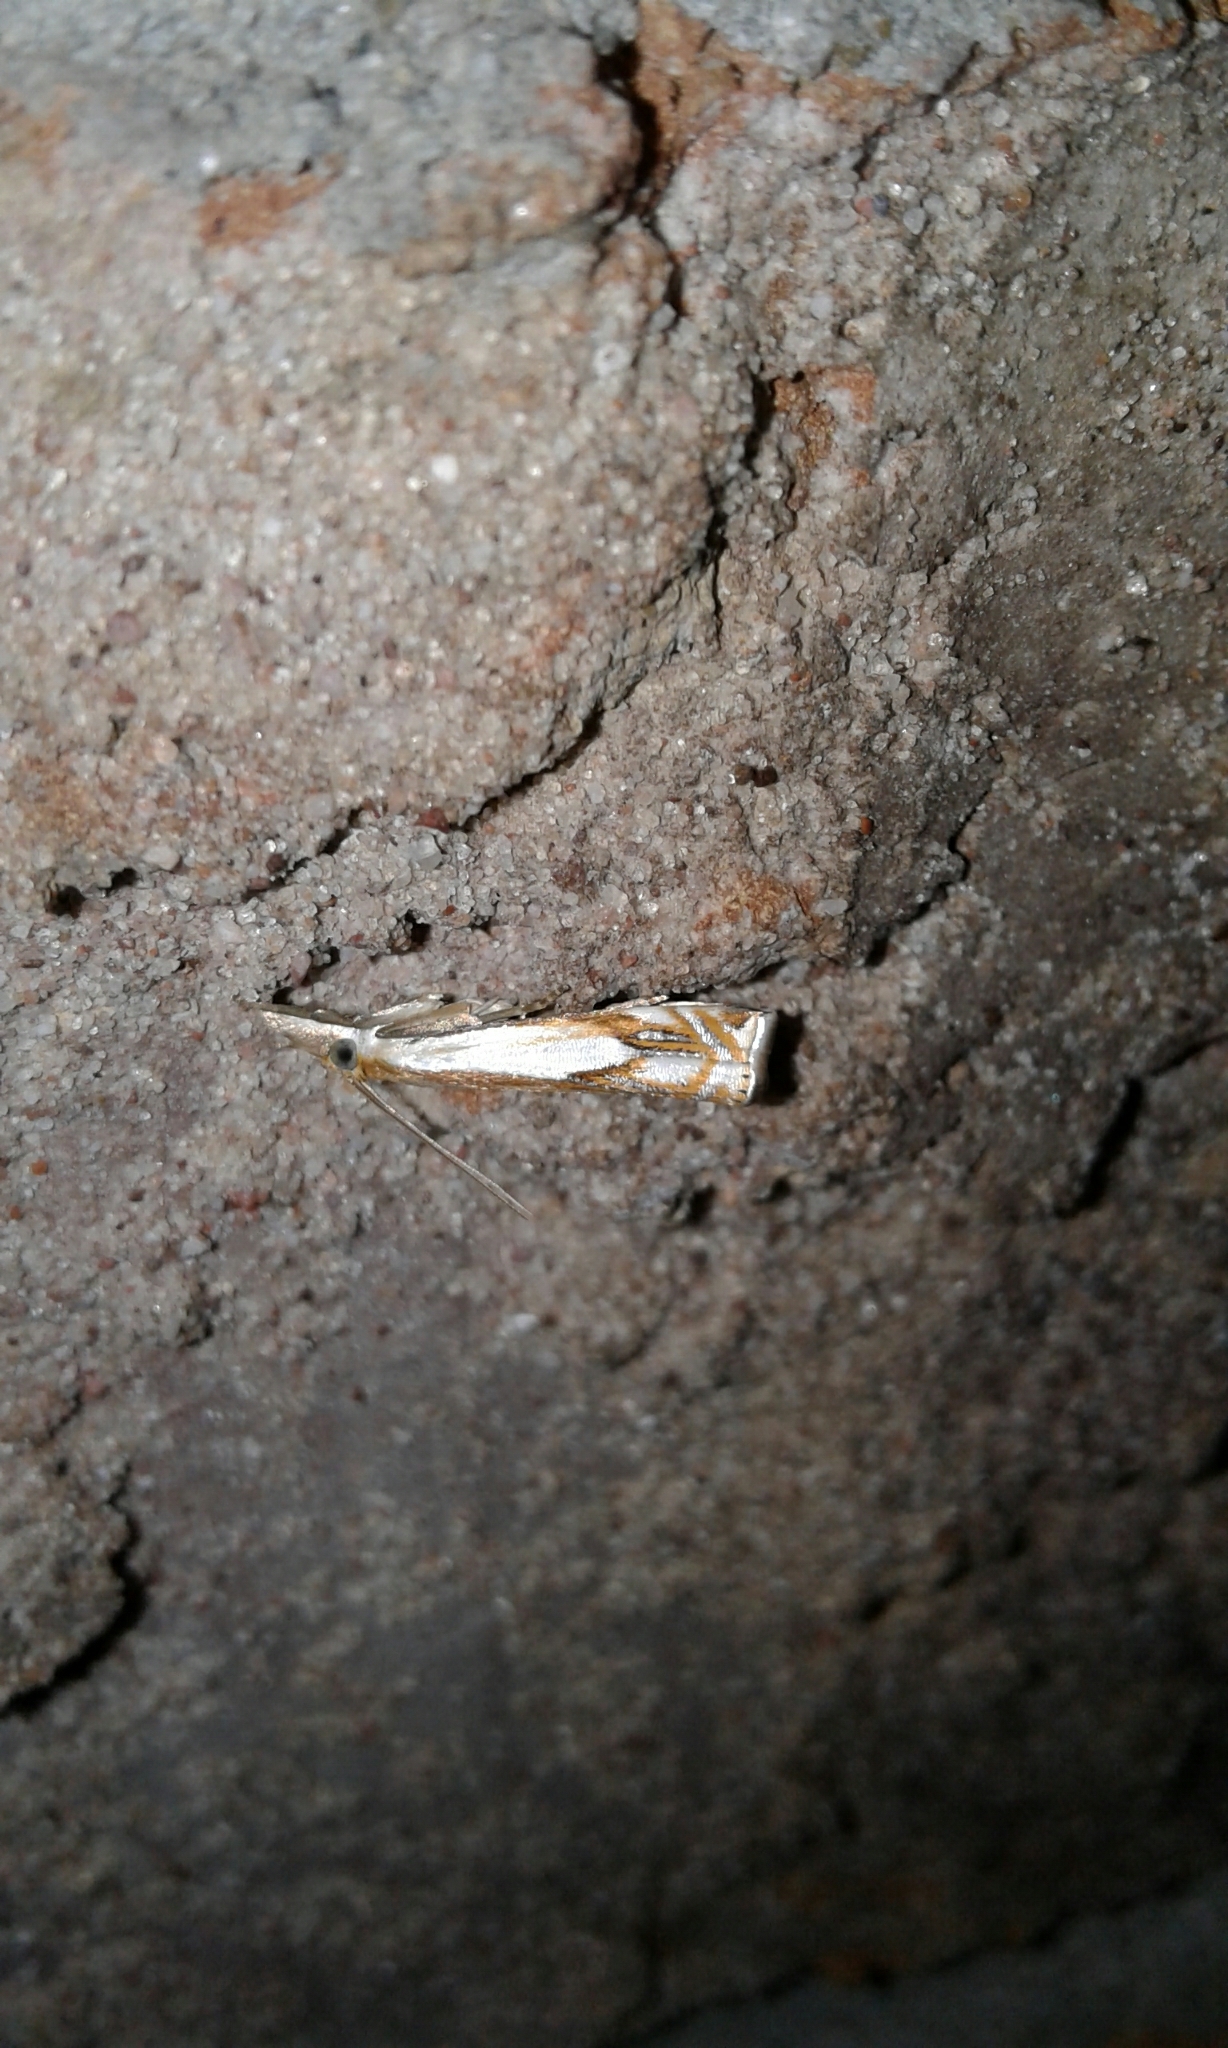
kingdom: Animalia
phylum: Arthropoda
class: Insecta
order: Lepidoptera
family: Crambidae
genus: Crambus
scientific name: Crambus agitatellus
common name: Double-banded grass-veneer
